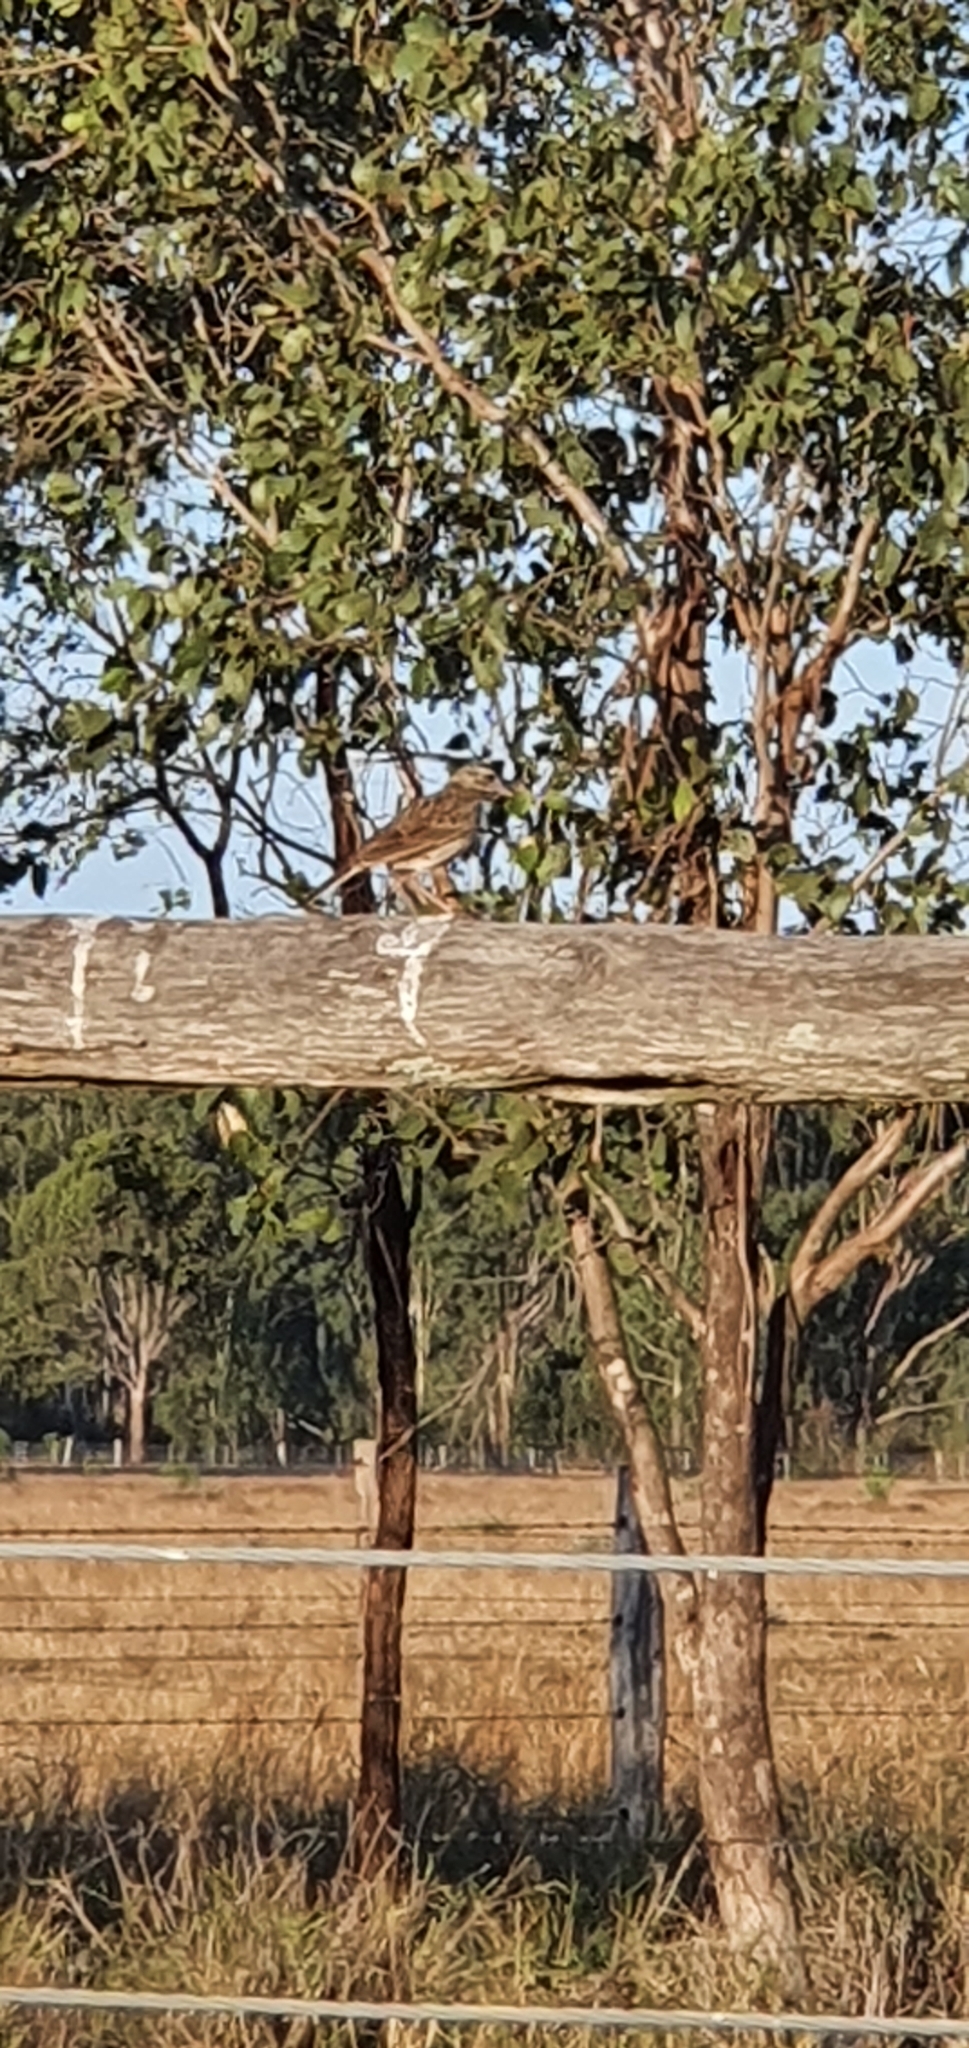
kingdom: Animalia
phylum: Chordata
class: Aves
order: Passeriformes
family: Motacillidae
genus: Anthus
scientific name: Anthus australis
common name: Australian pipit
